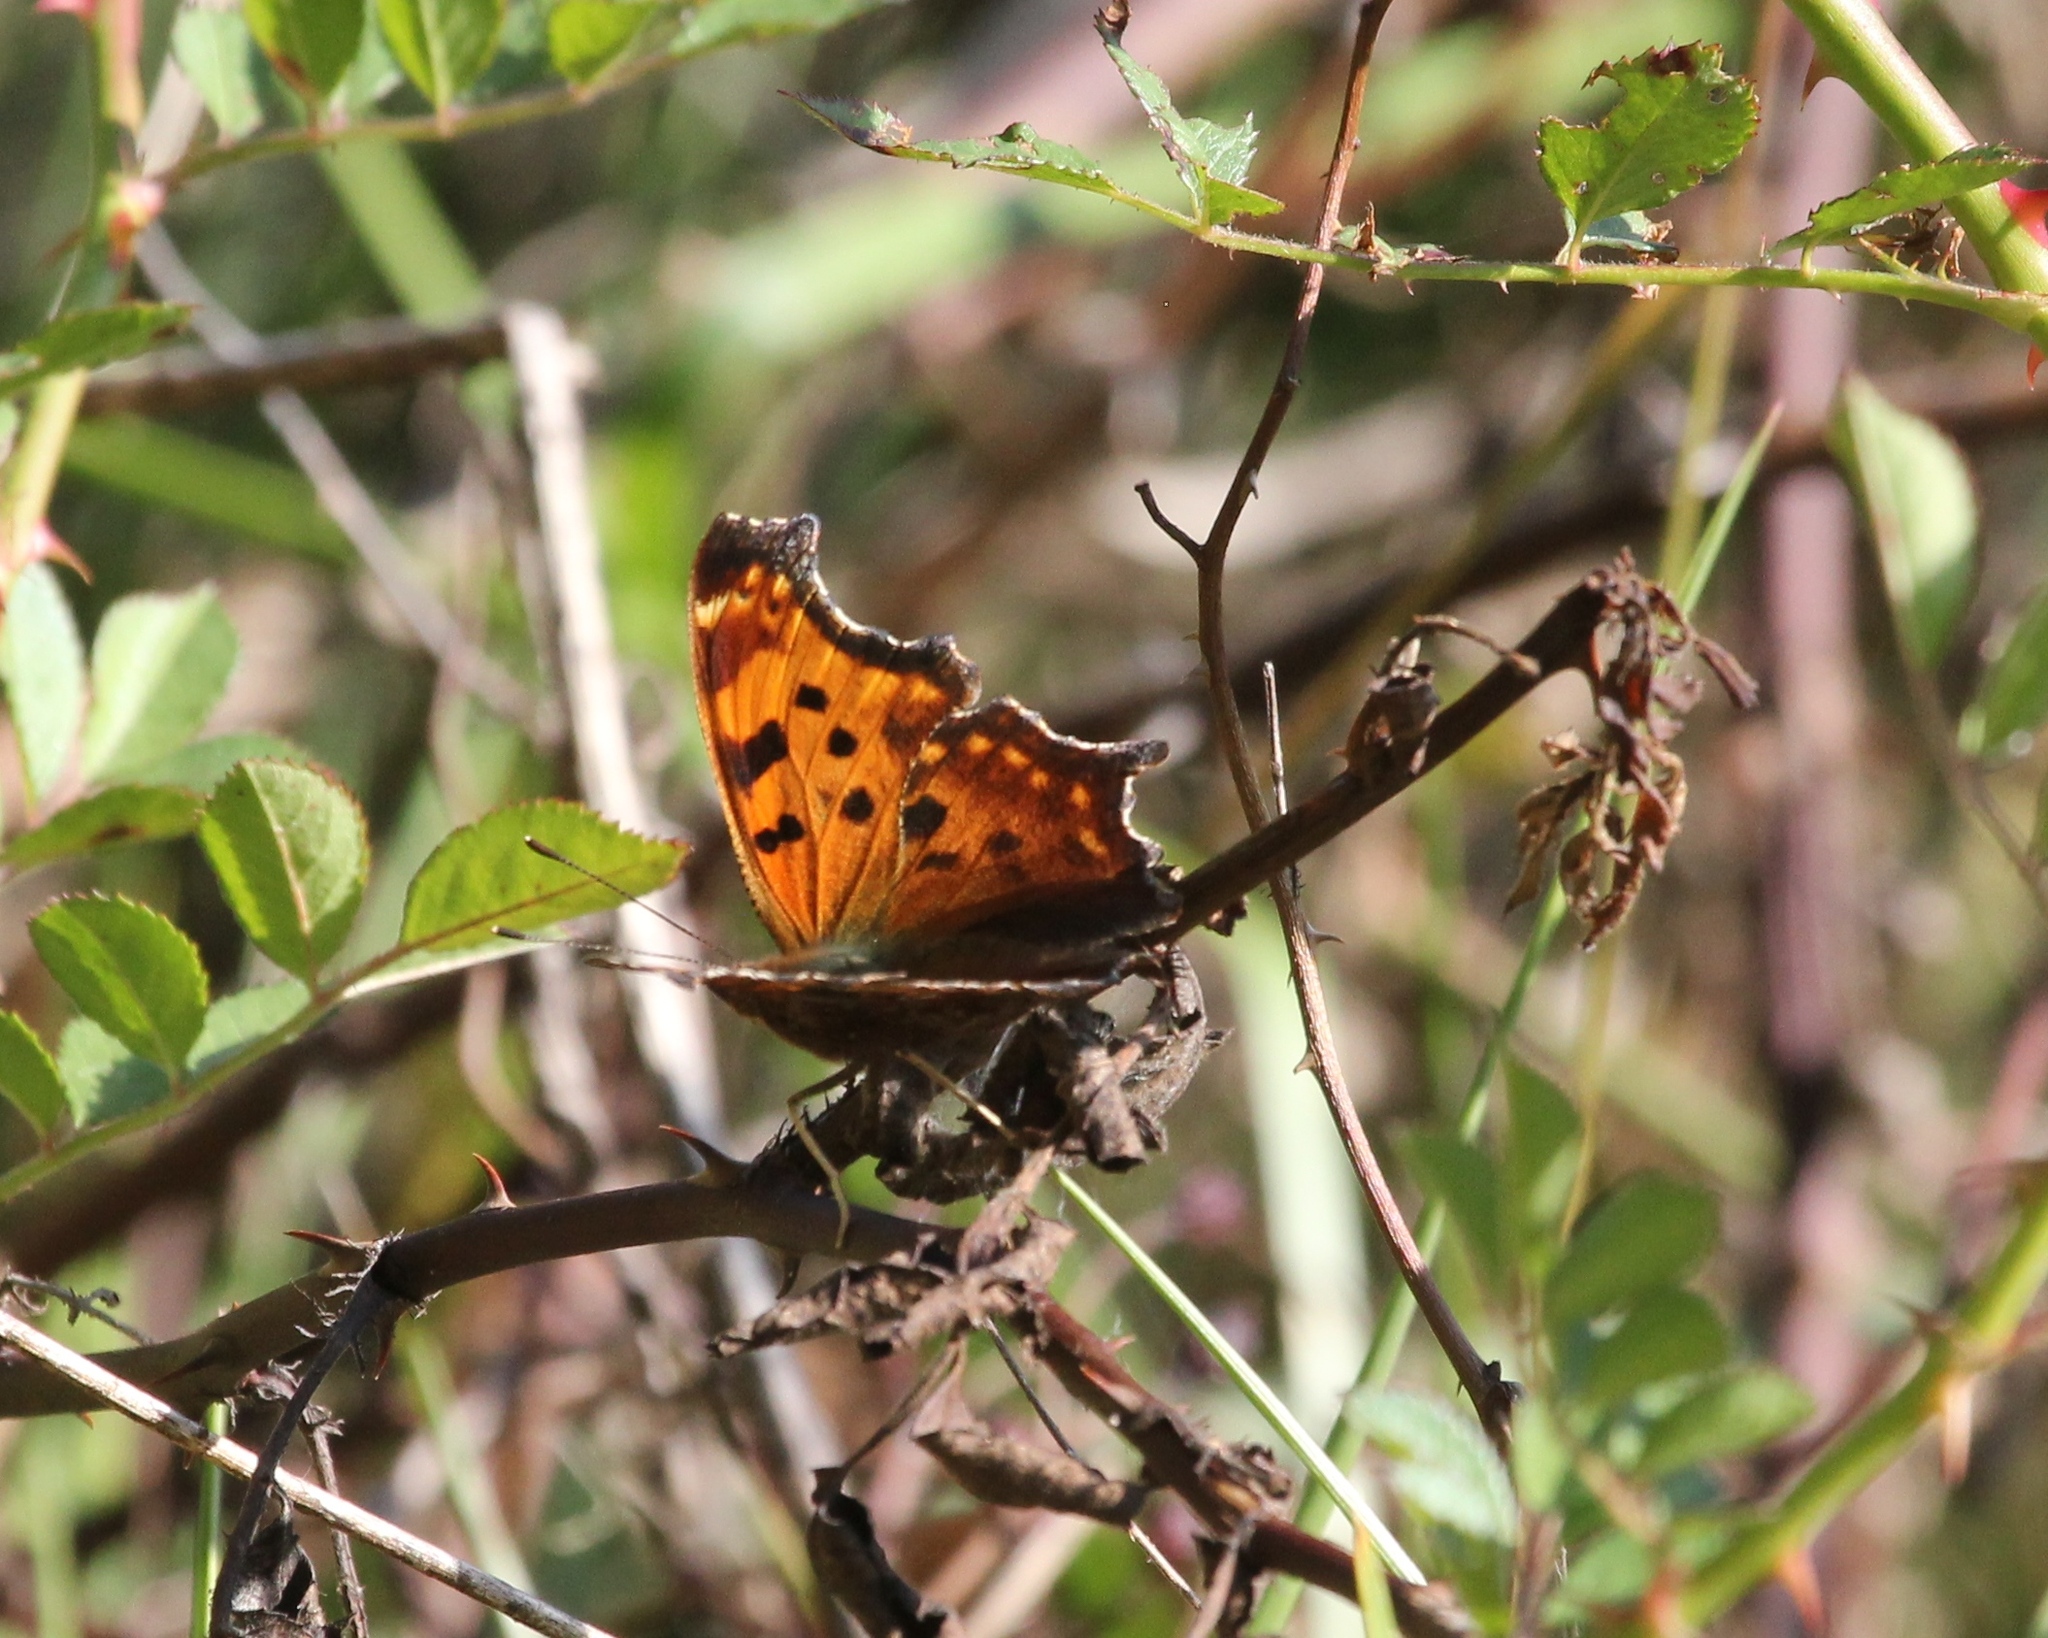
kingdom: Animalia
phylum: Arthropoda
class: Insecta
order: Lepidoptera
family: Nymphalidae
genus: Polygonia
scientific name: Polygonia comma
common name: Eastern comma
